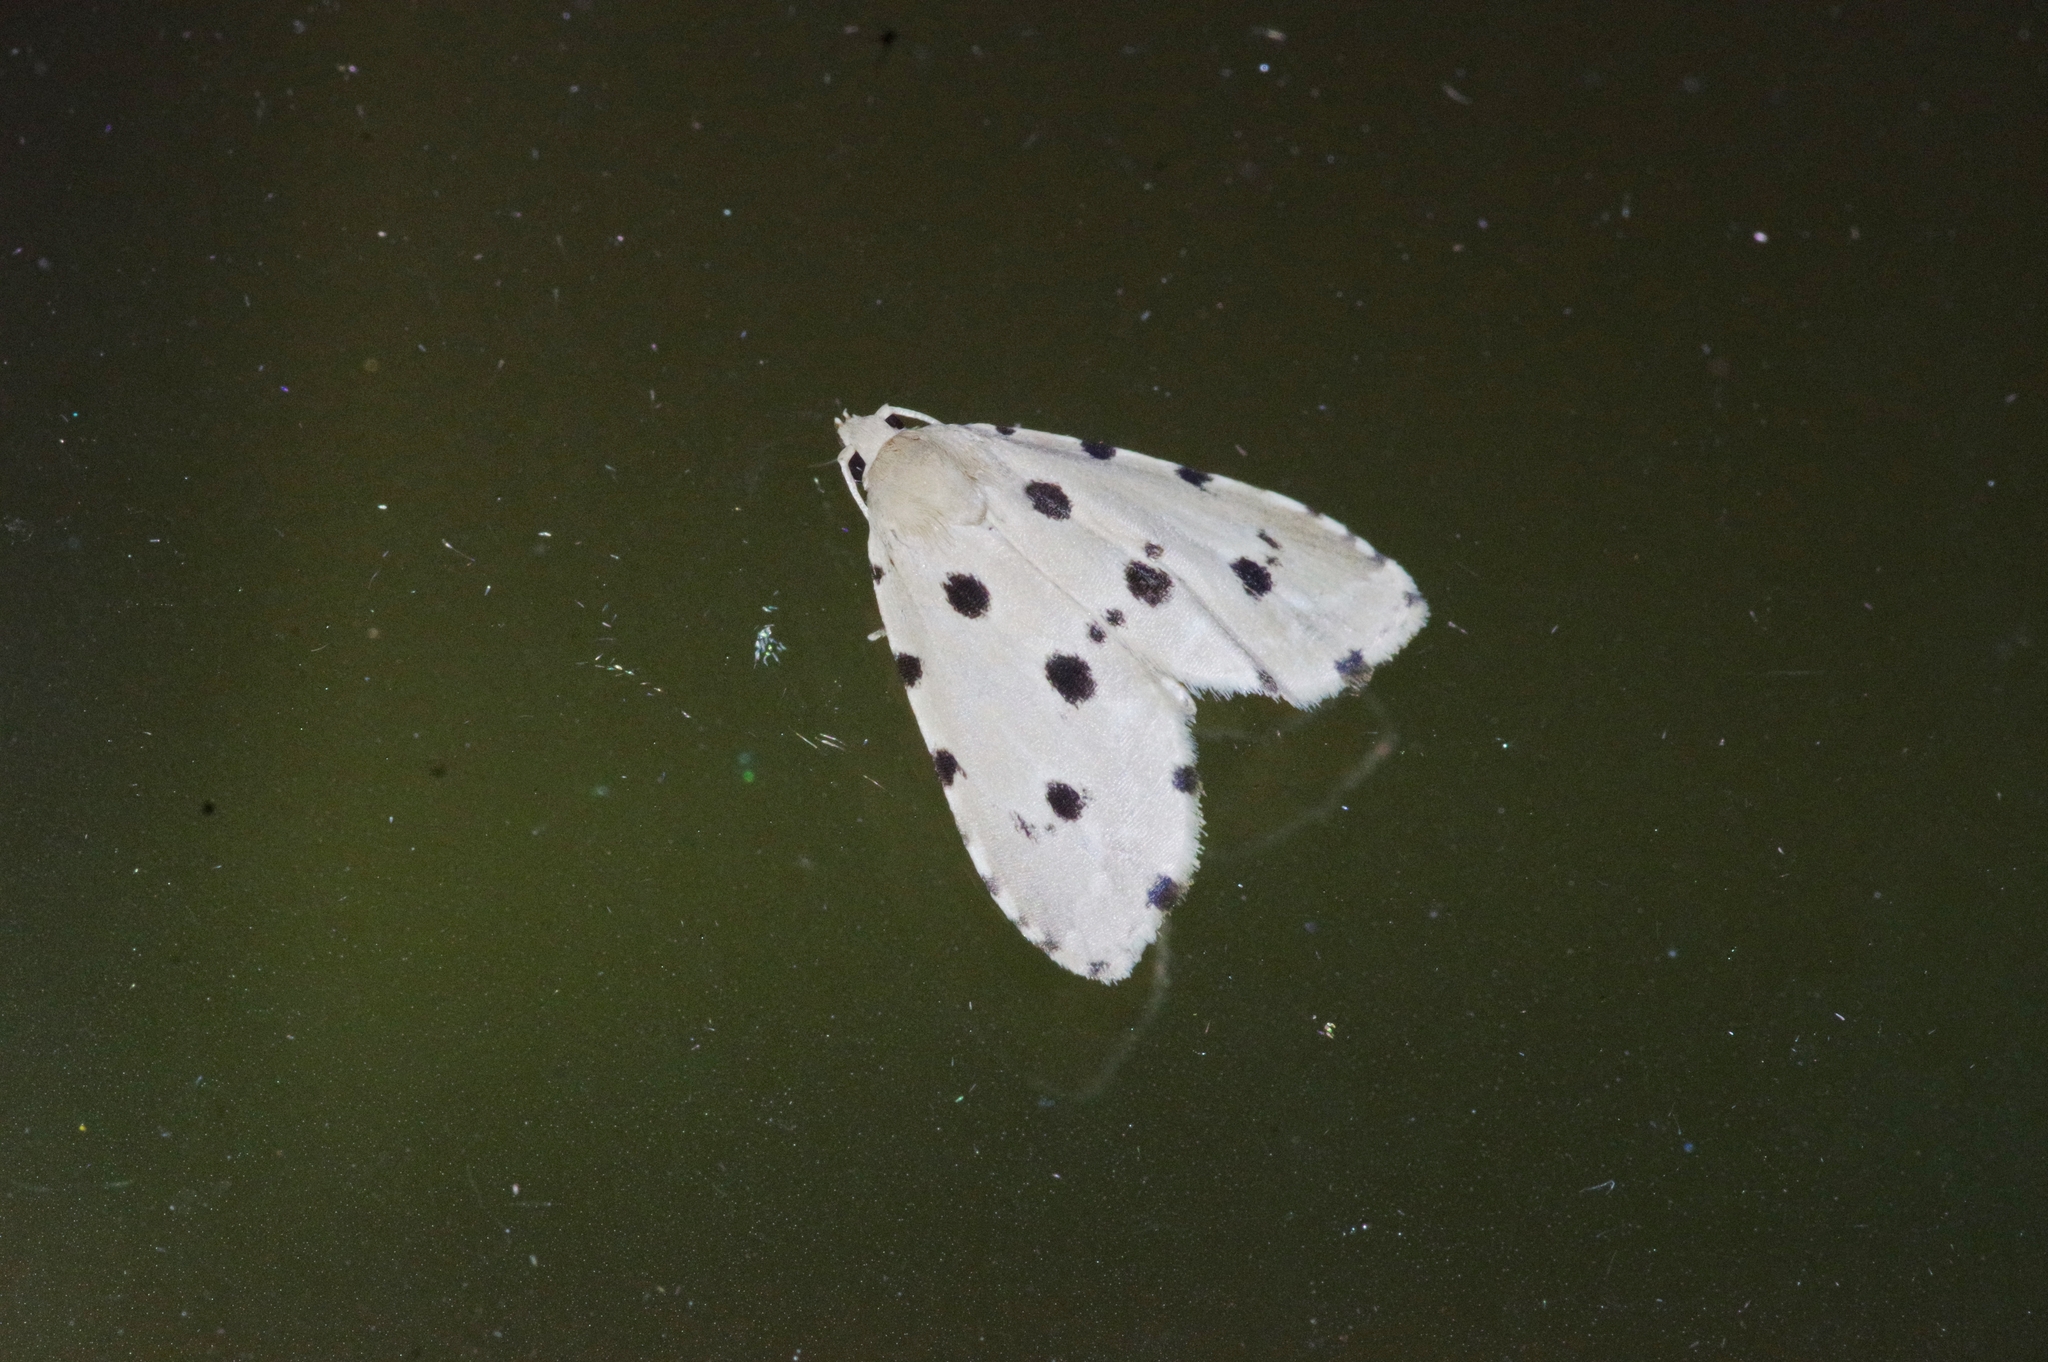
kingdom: Animalia
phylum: Arthropoda
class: Insecta
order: Lepidoptera
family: Noctuidae
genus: Metaemene
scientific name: Metaemene atrigutta
